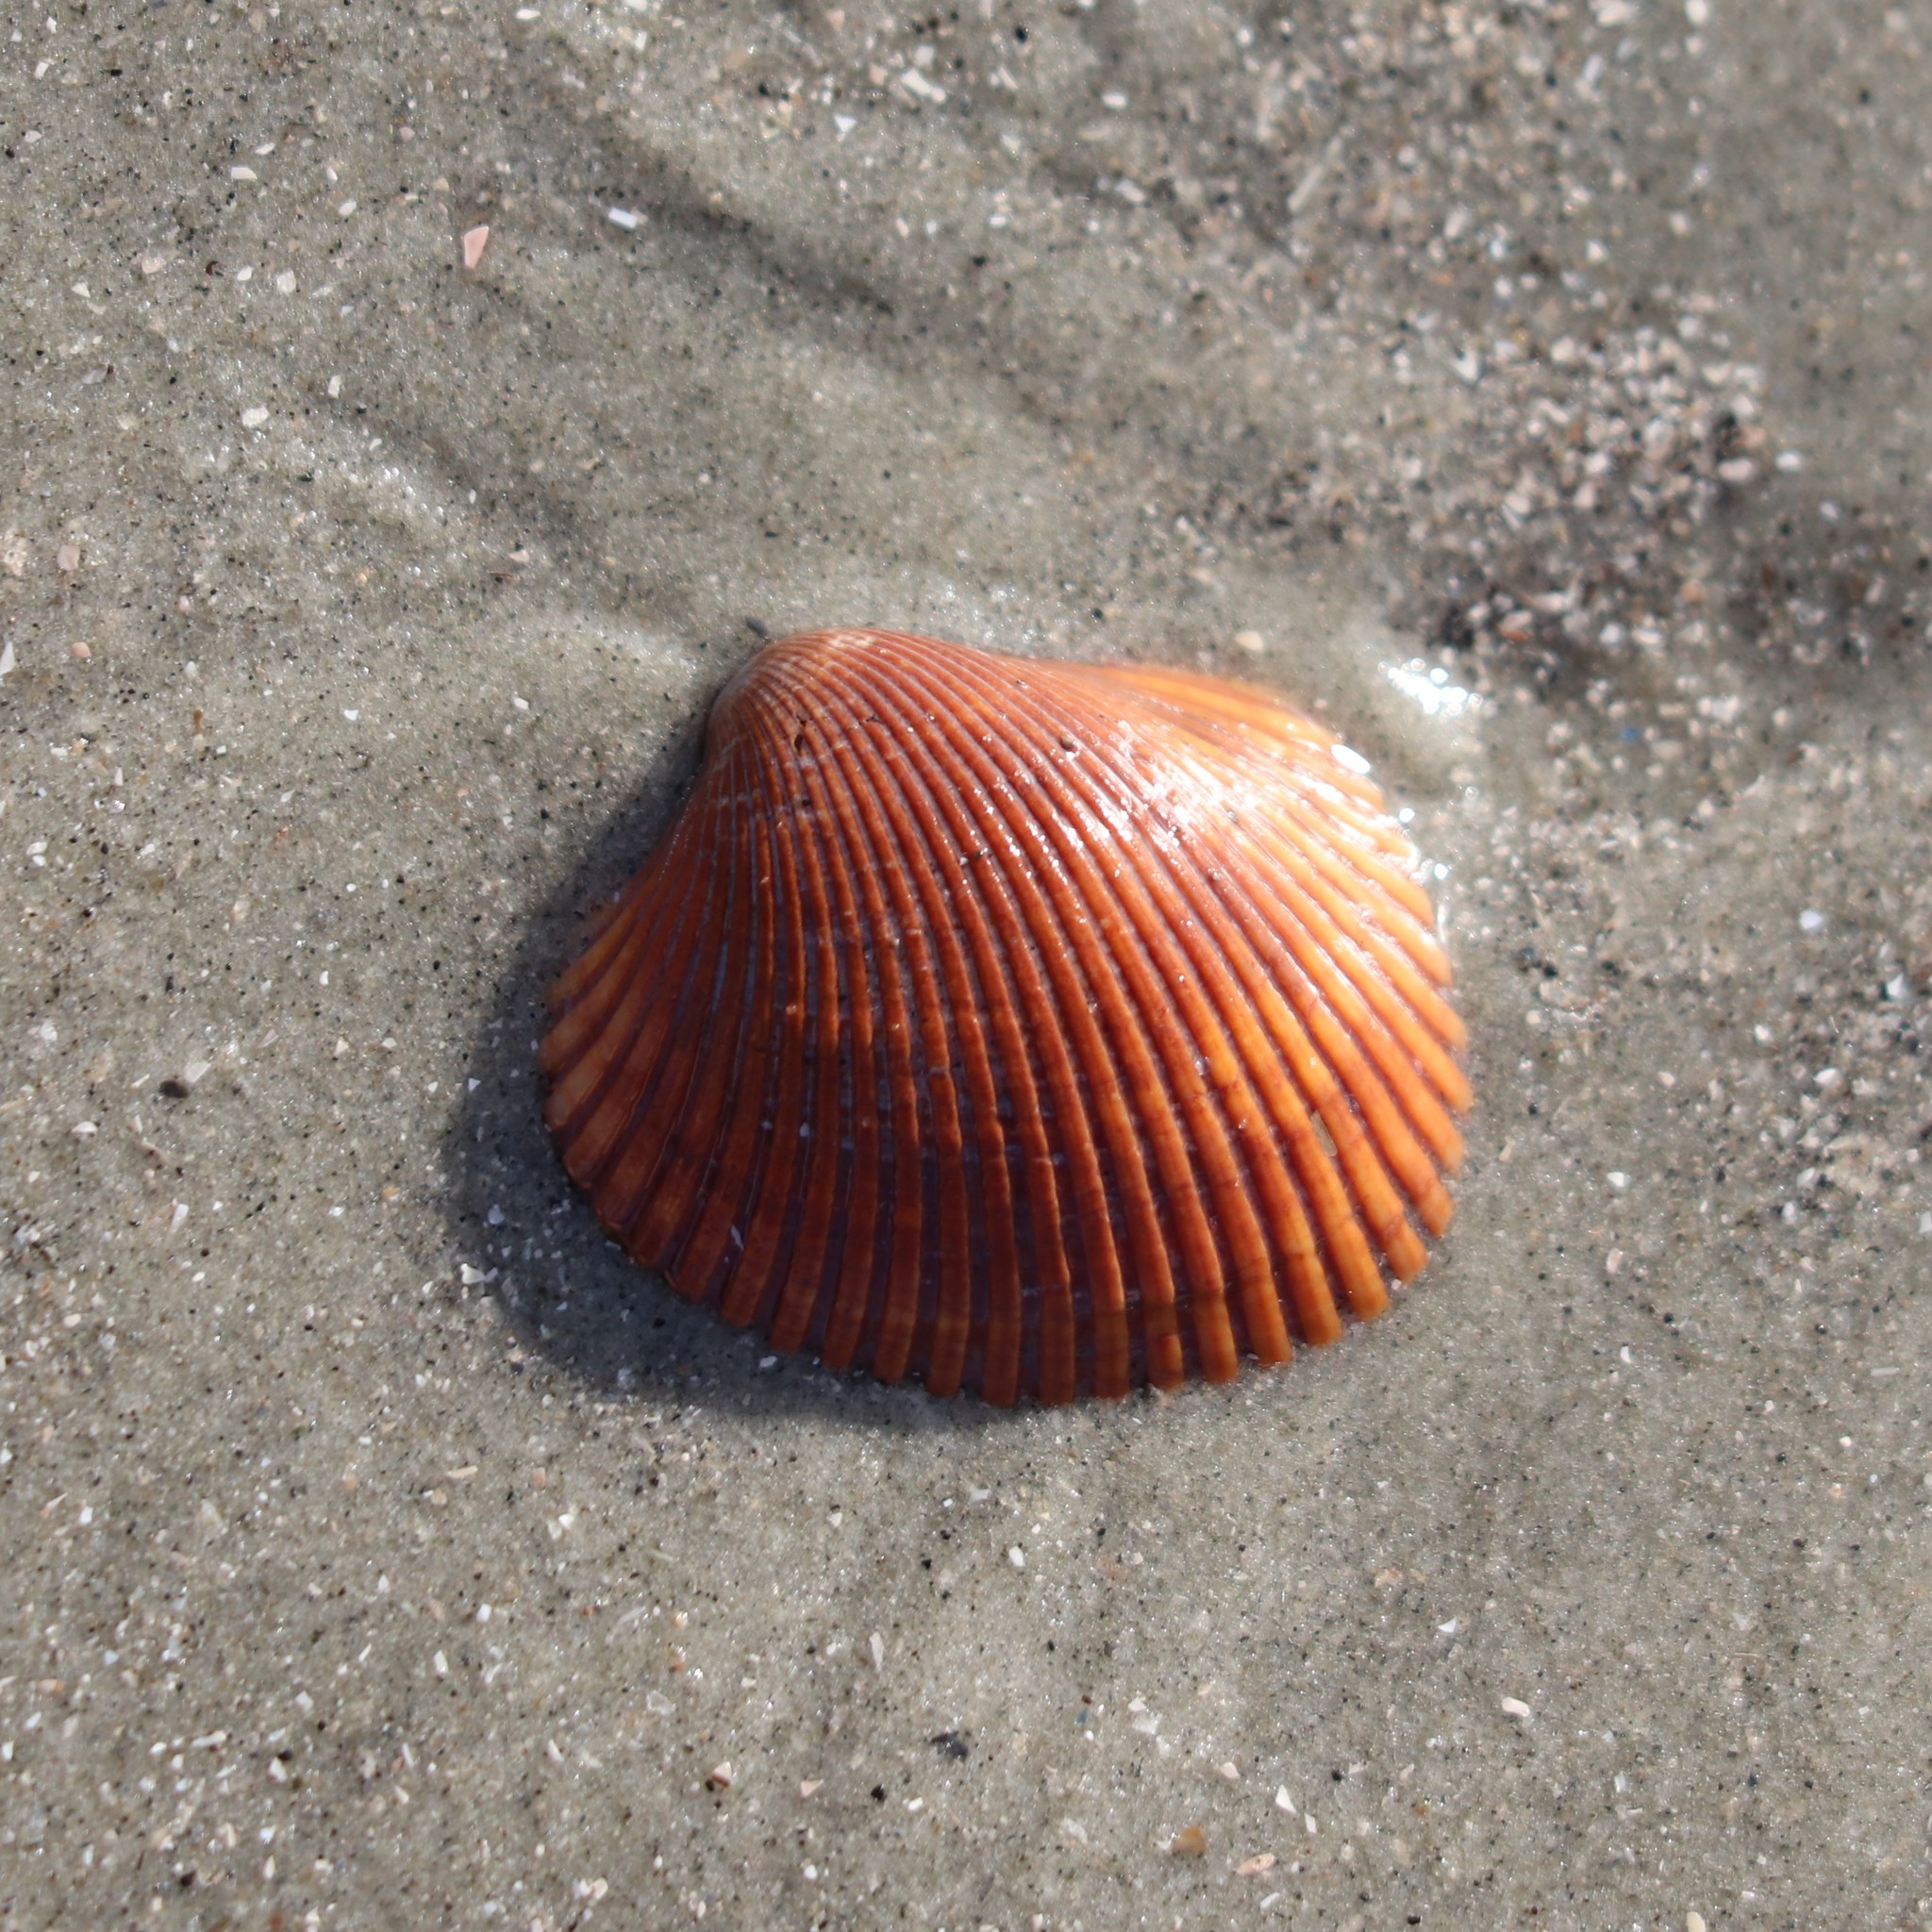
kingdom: Animalia
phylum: Mollusca
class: Bivalvia
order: Arcida
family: Arcidae
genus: Lunarca
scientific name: Lunarca ovalis
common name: Blood ark
